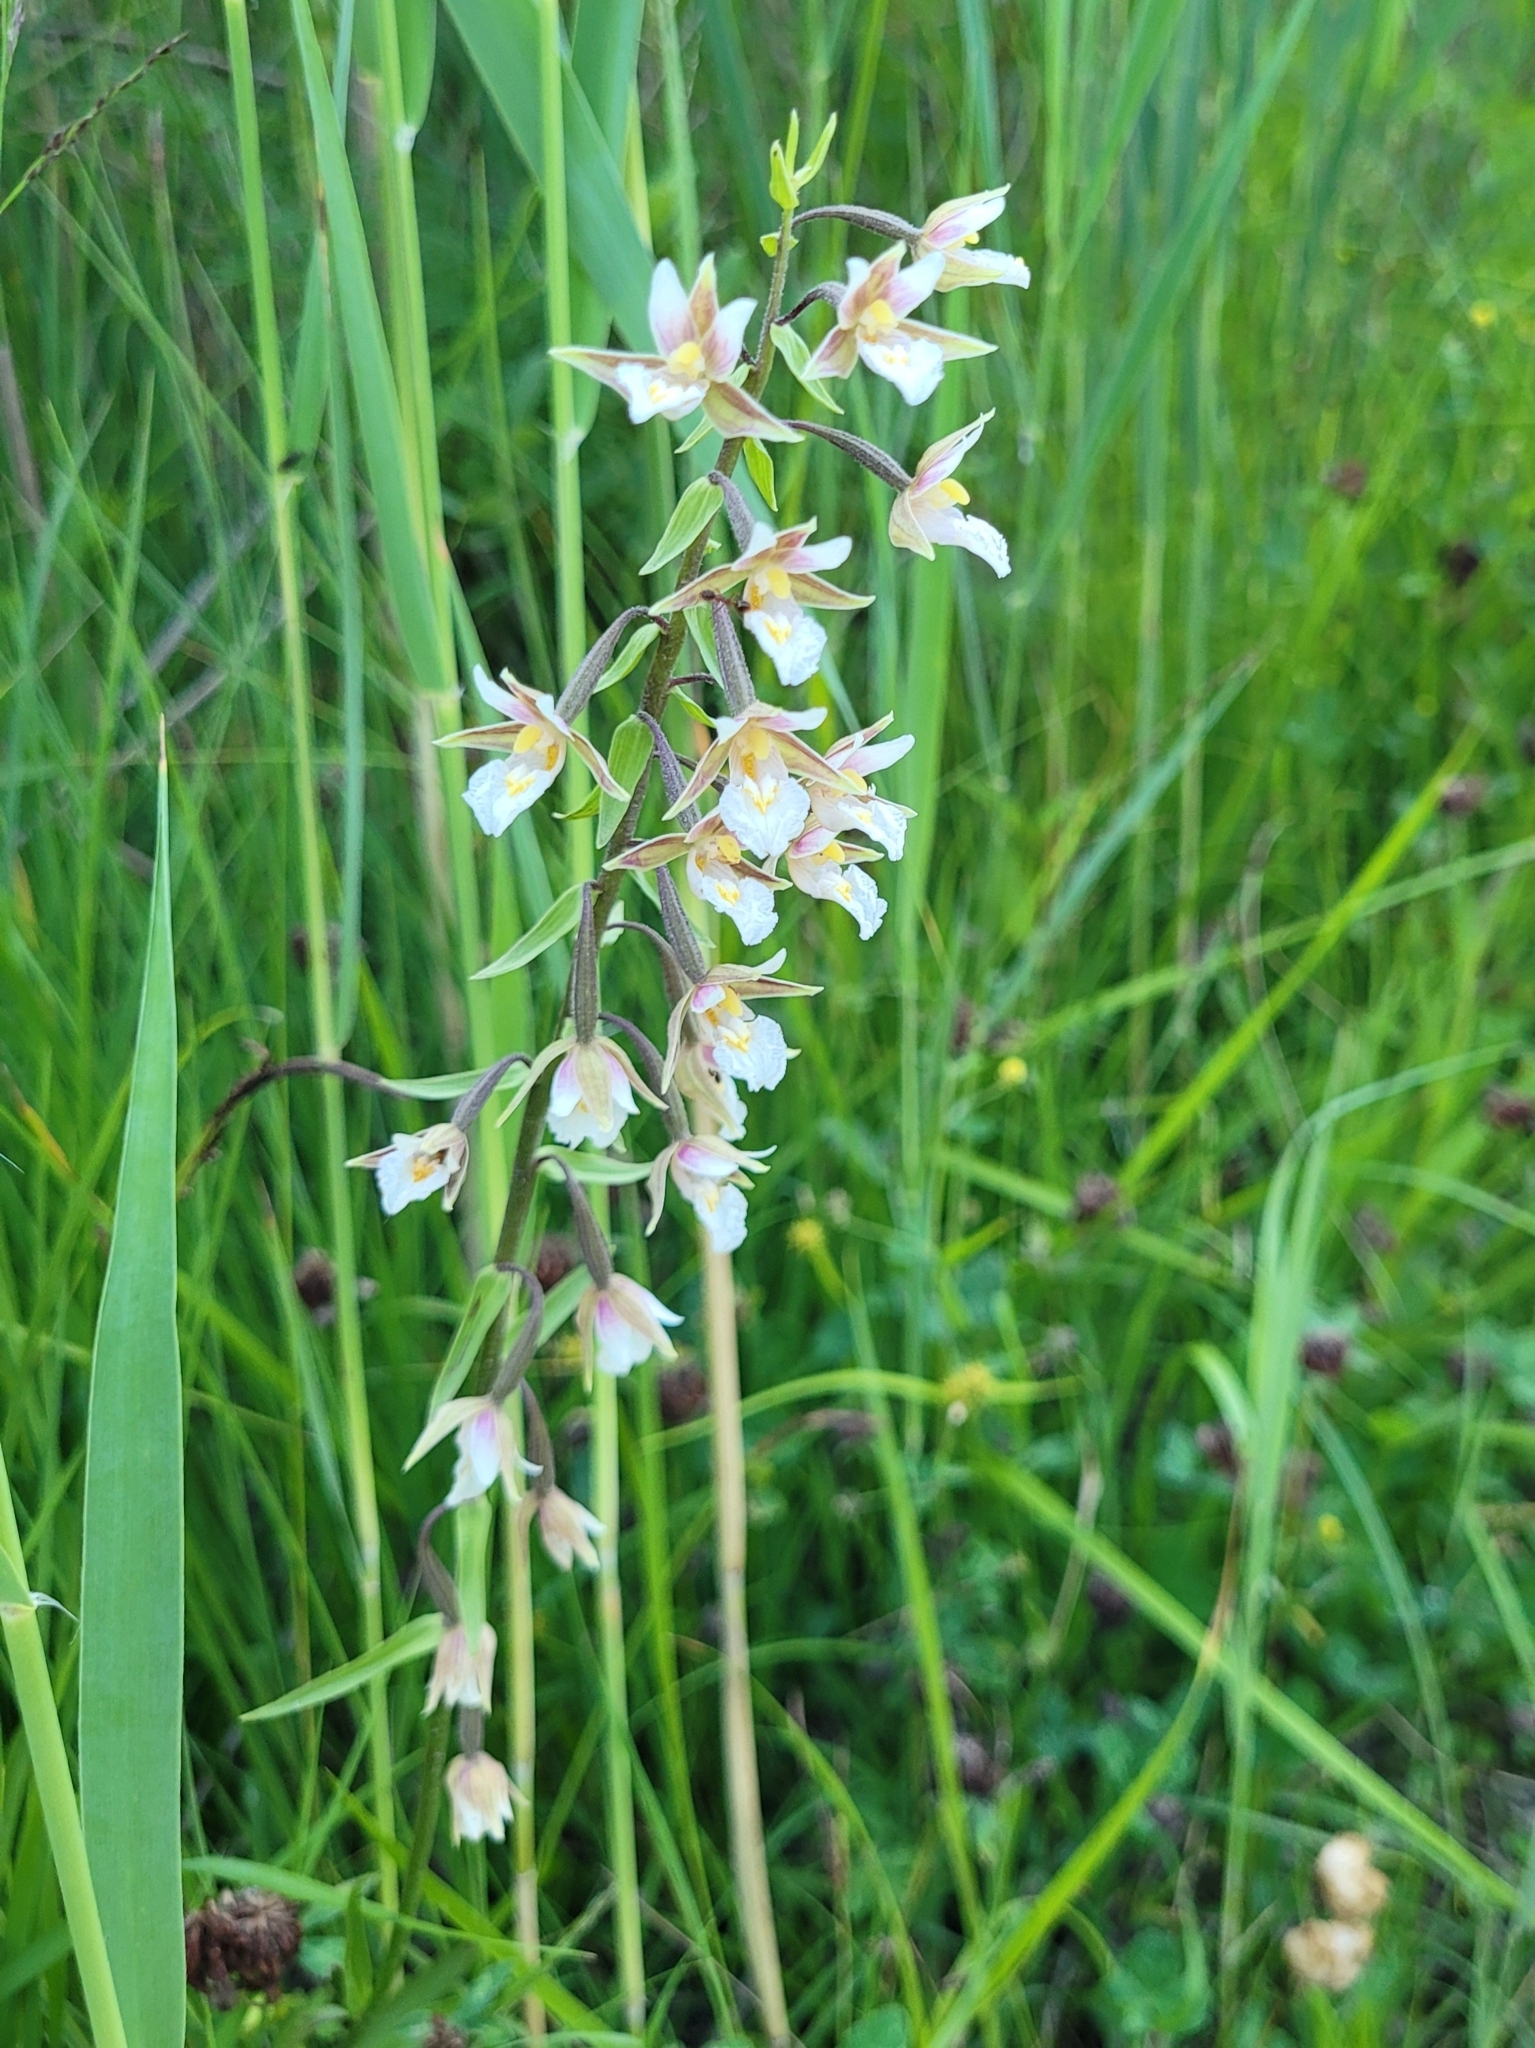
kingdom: Plantae
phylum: Tracheophyta
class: Liliopsida
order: Asparagales
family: Orchidaceae
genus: Epipactis
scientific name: Epipactis palustris
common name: Marsh helleborine
